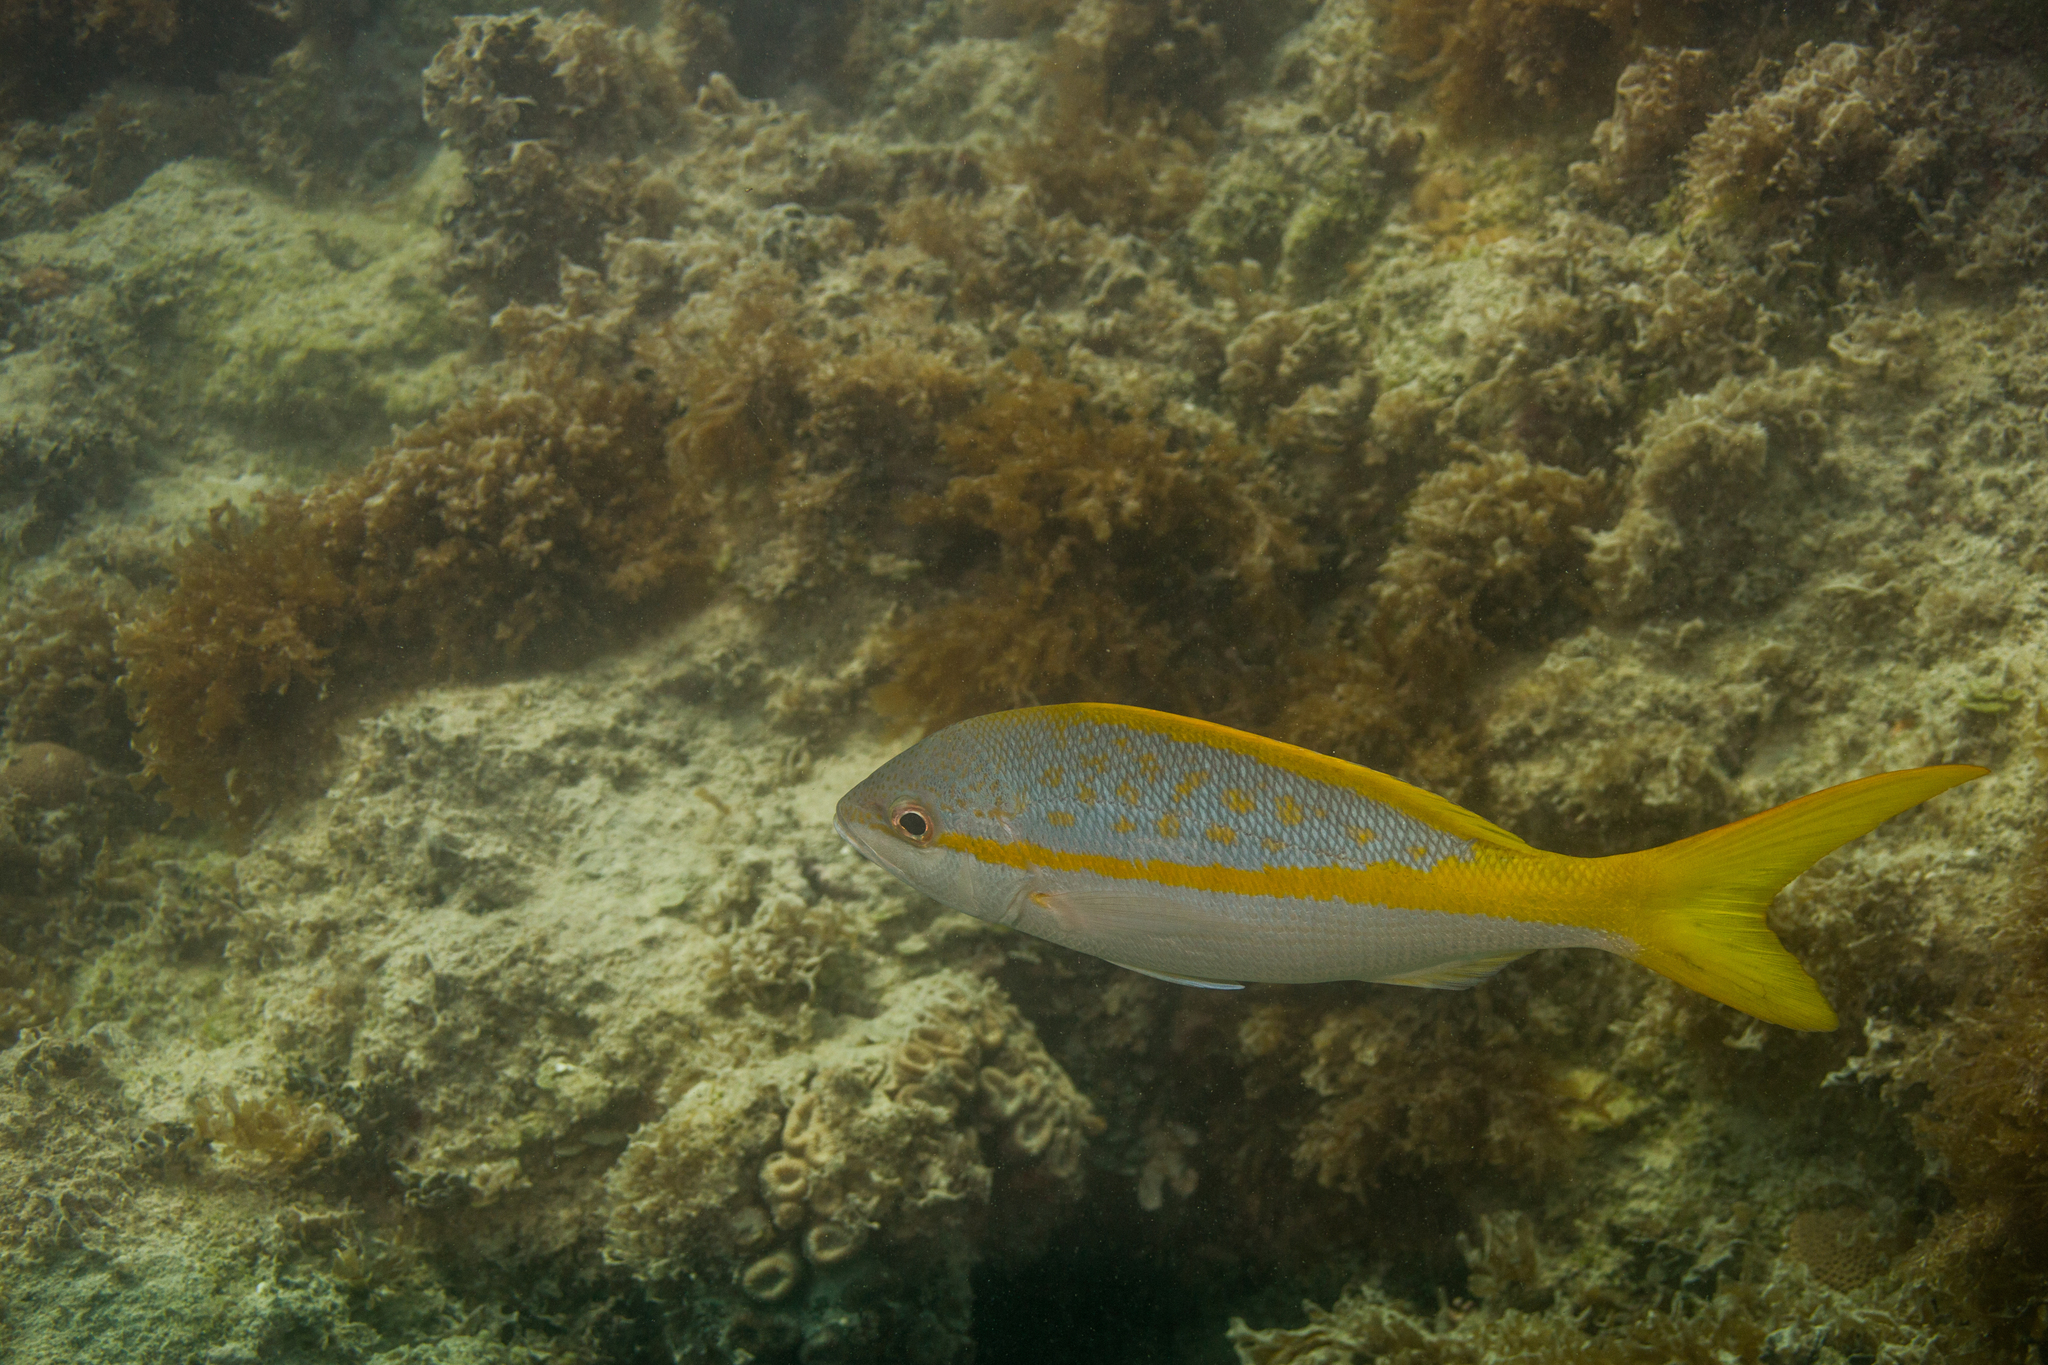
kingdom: Animalia
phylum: Chordata
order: Perciformes
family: Lutjanidae
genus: Ocyurus
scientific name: Ocyurus chrysurus
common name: Yellowtail snapper
